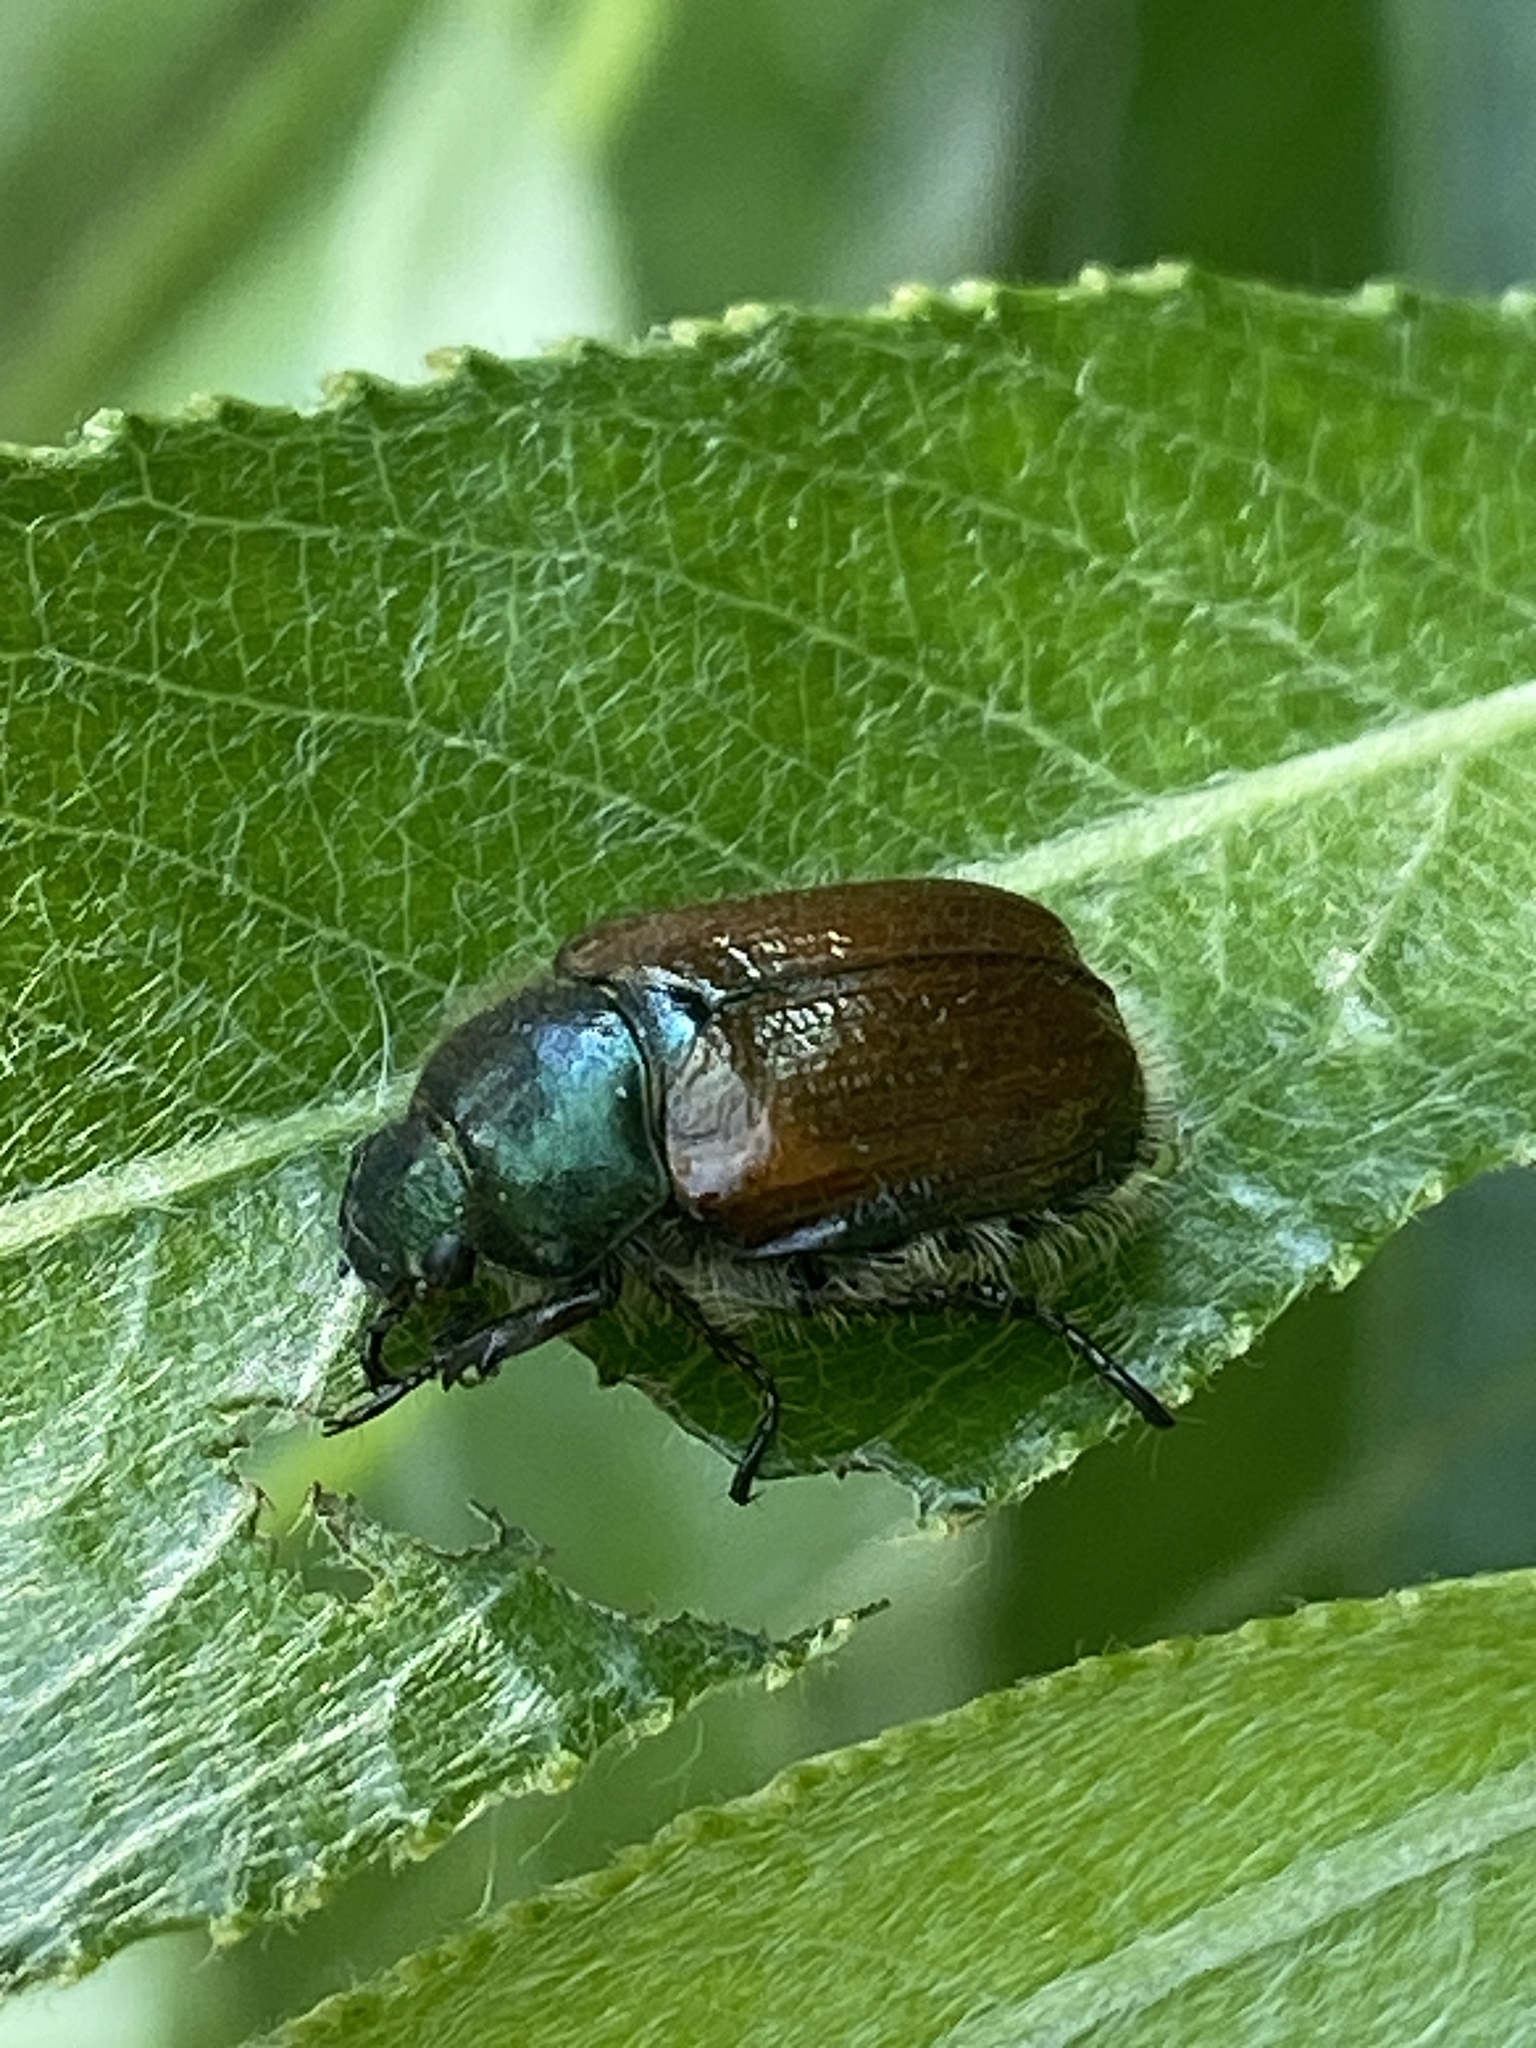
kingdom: Animalia
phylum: Arthropoda
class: Insecta
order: Coleoptera
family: Scarabaeidae
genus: Phyllopertha
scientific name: Phyllopertha horticola
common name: Garden chafer
